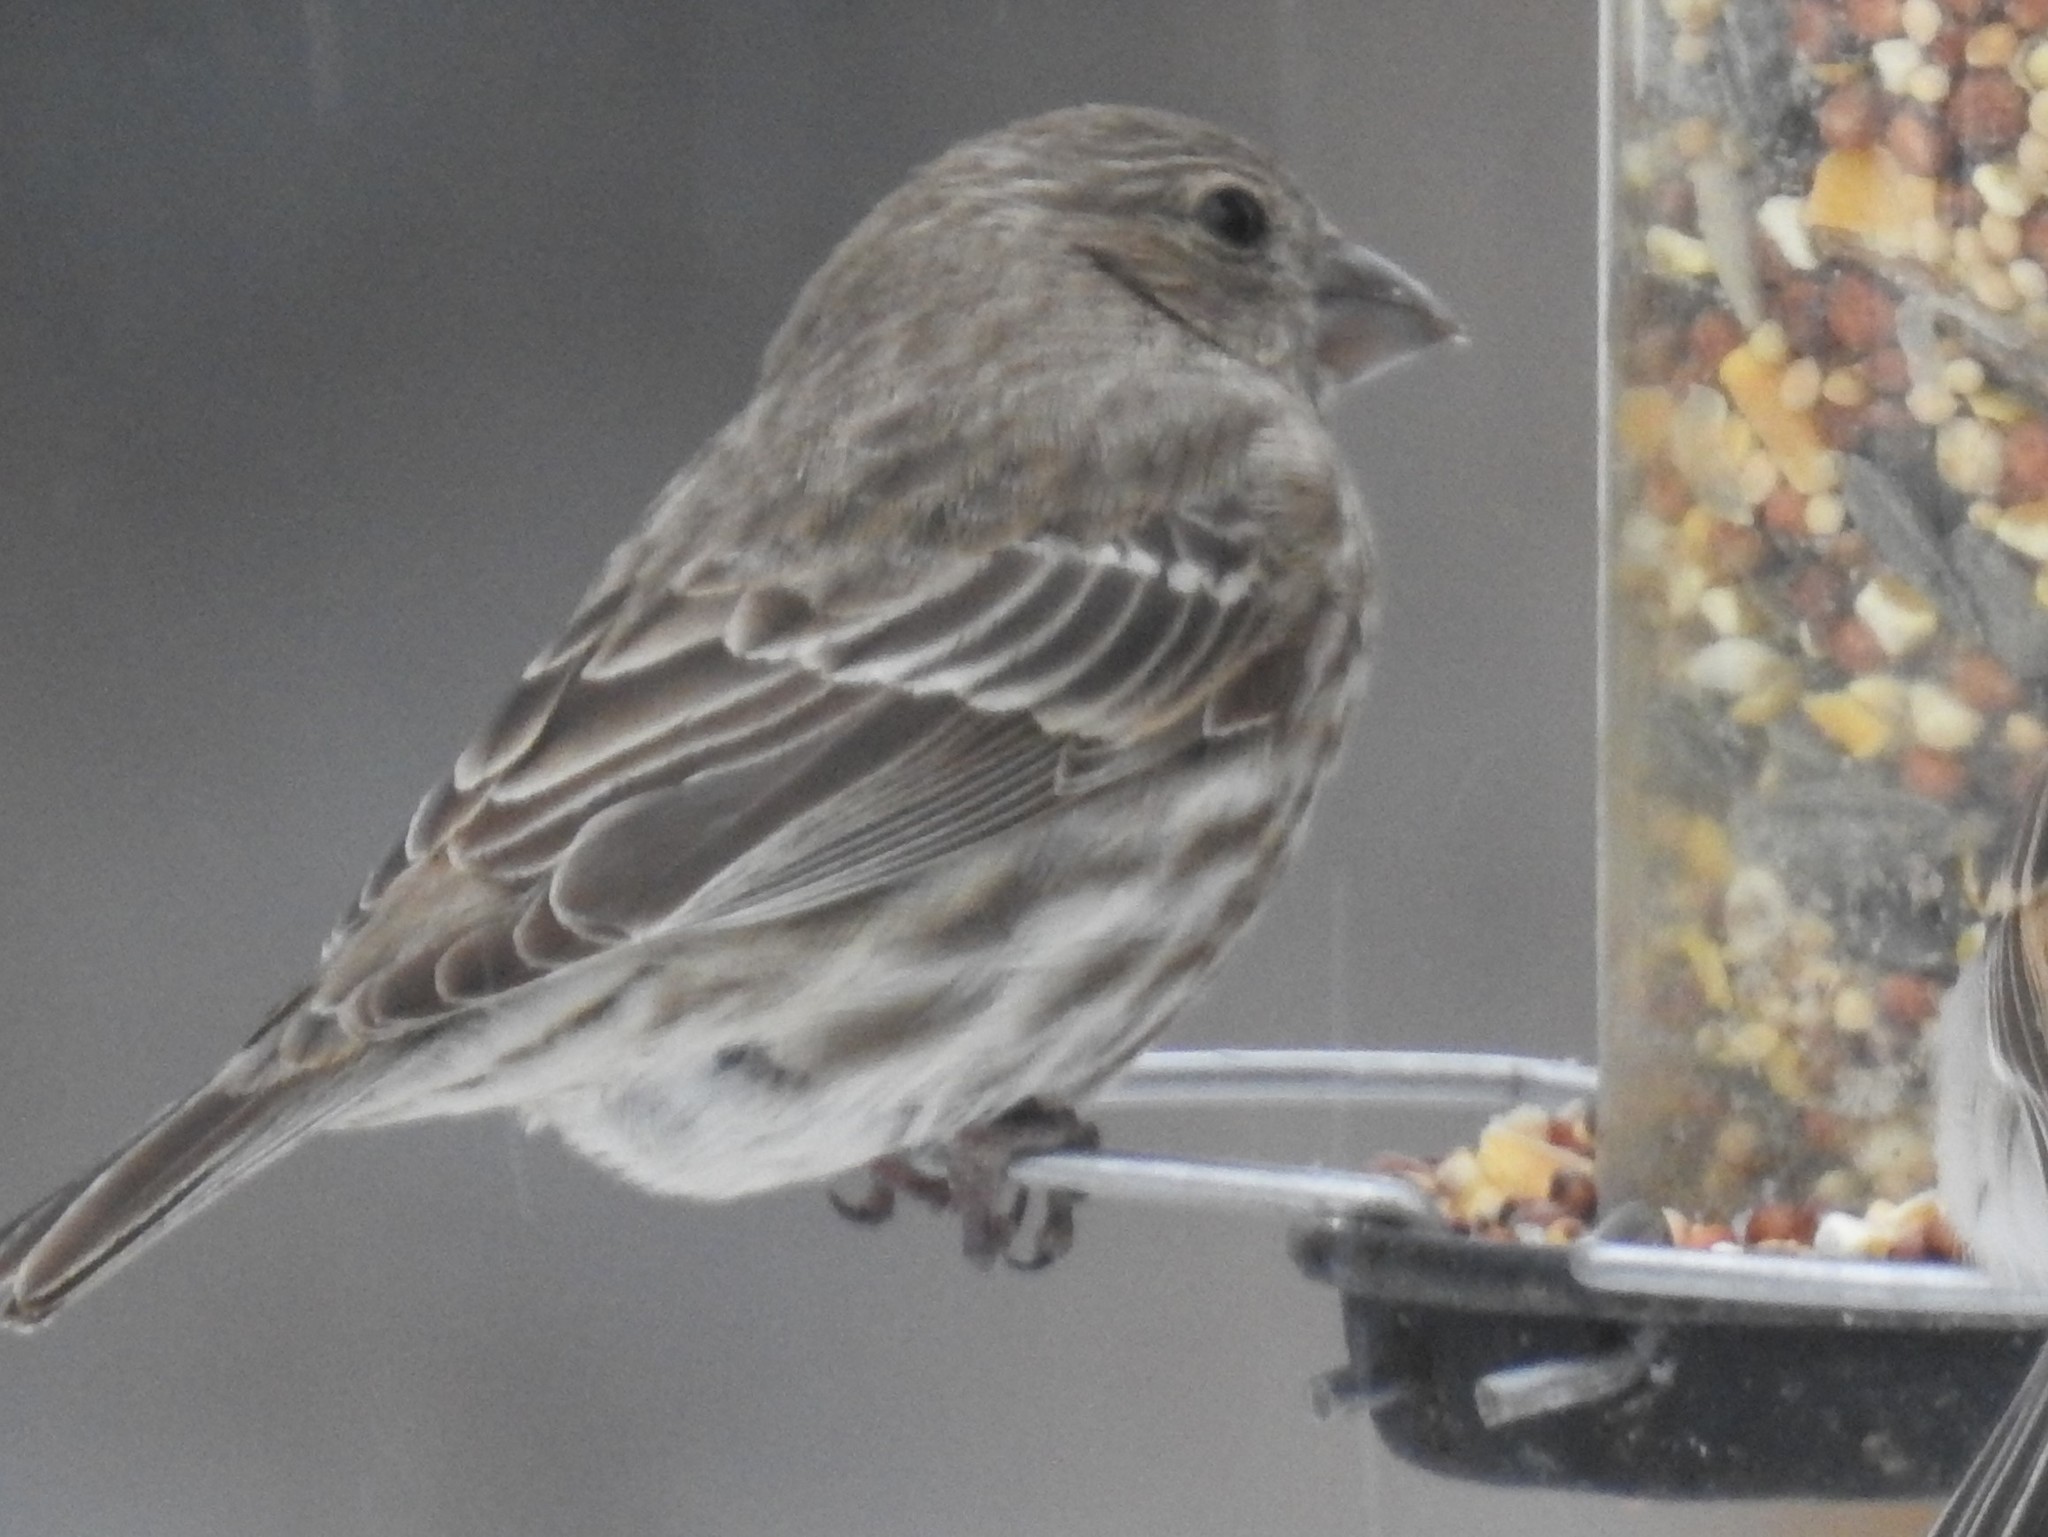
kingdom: Animalia
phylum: Chordata
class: Aves
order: Passeriformes
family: Fringillidae
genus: Haemorhous
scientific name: Haemorhous mexicanus
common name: House finch
